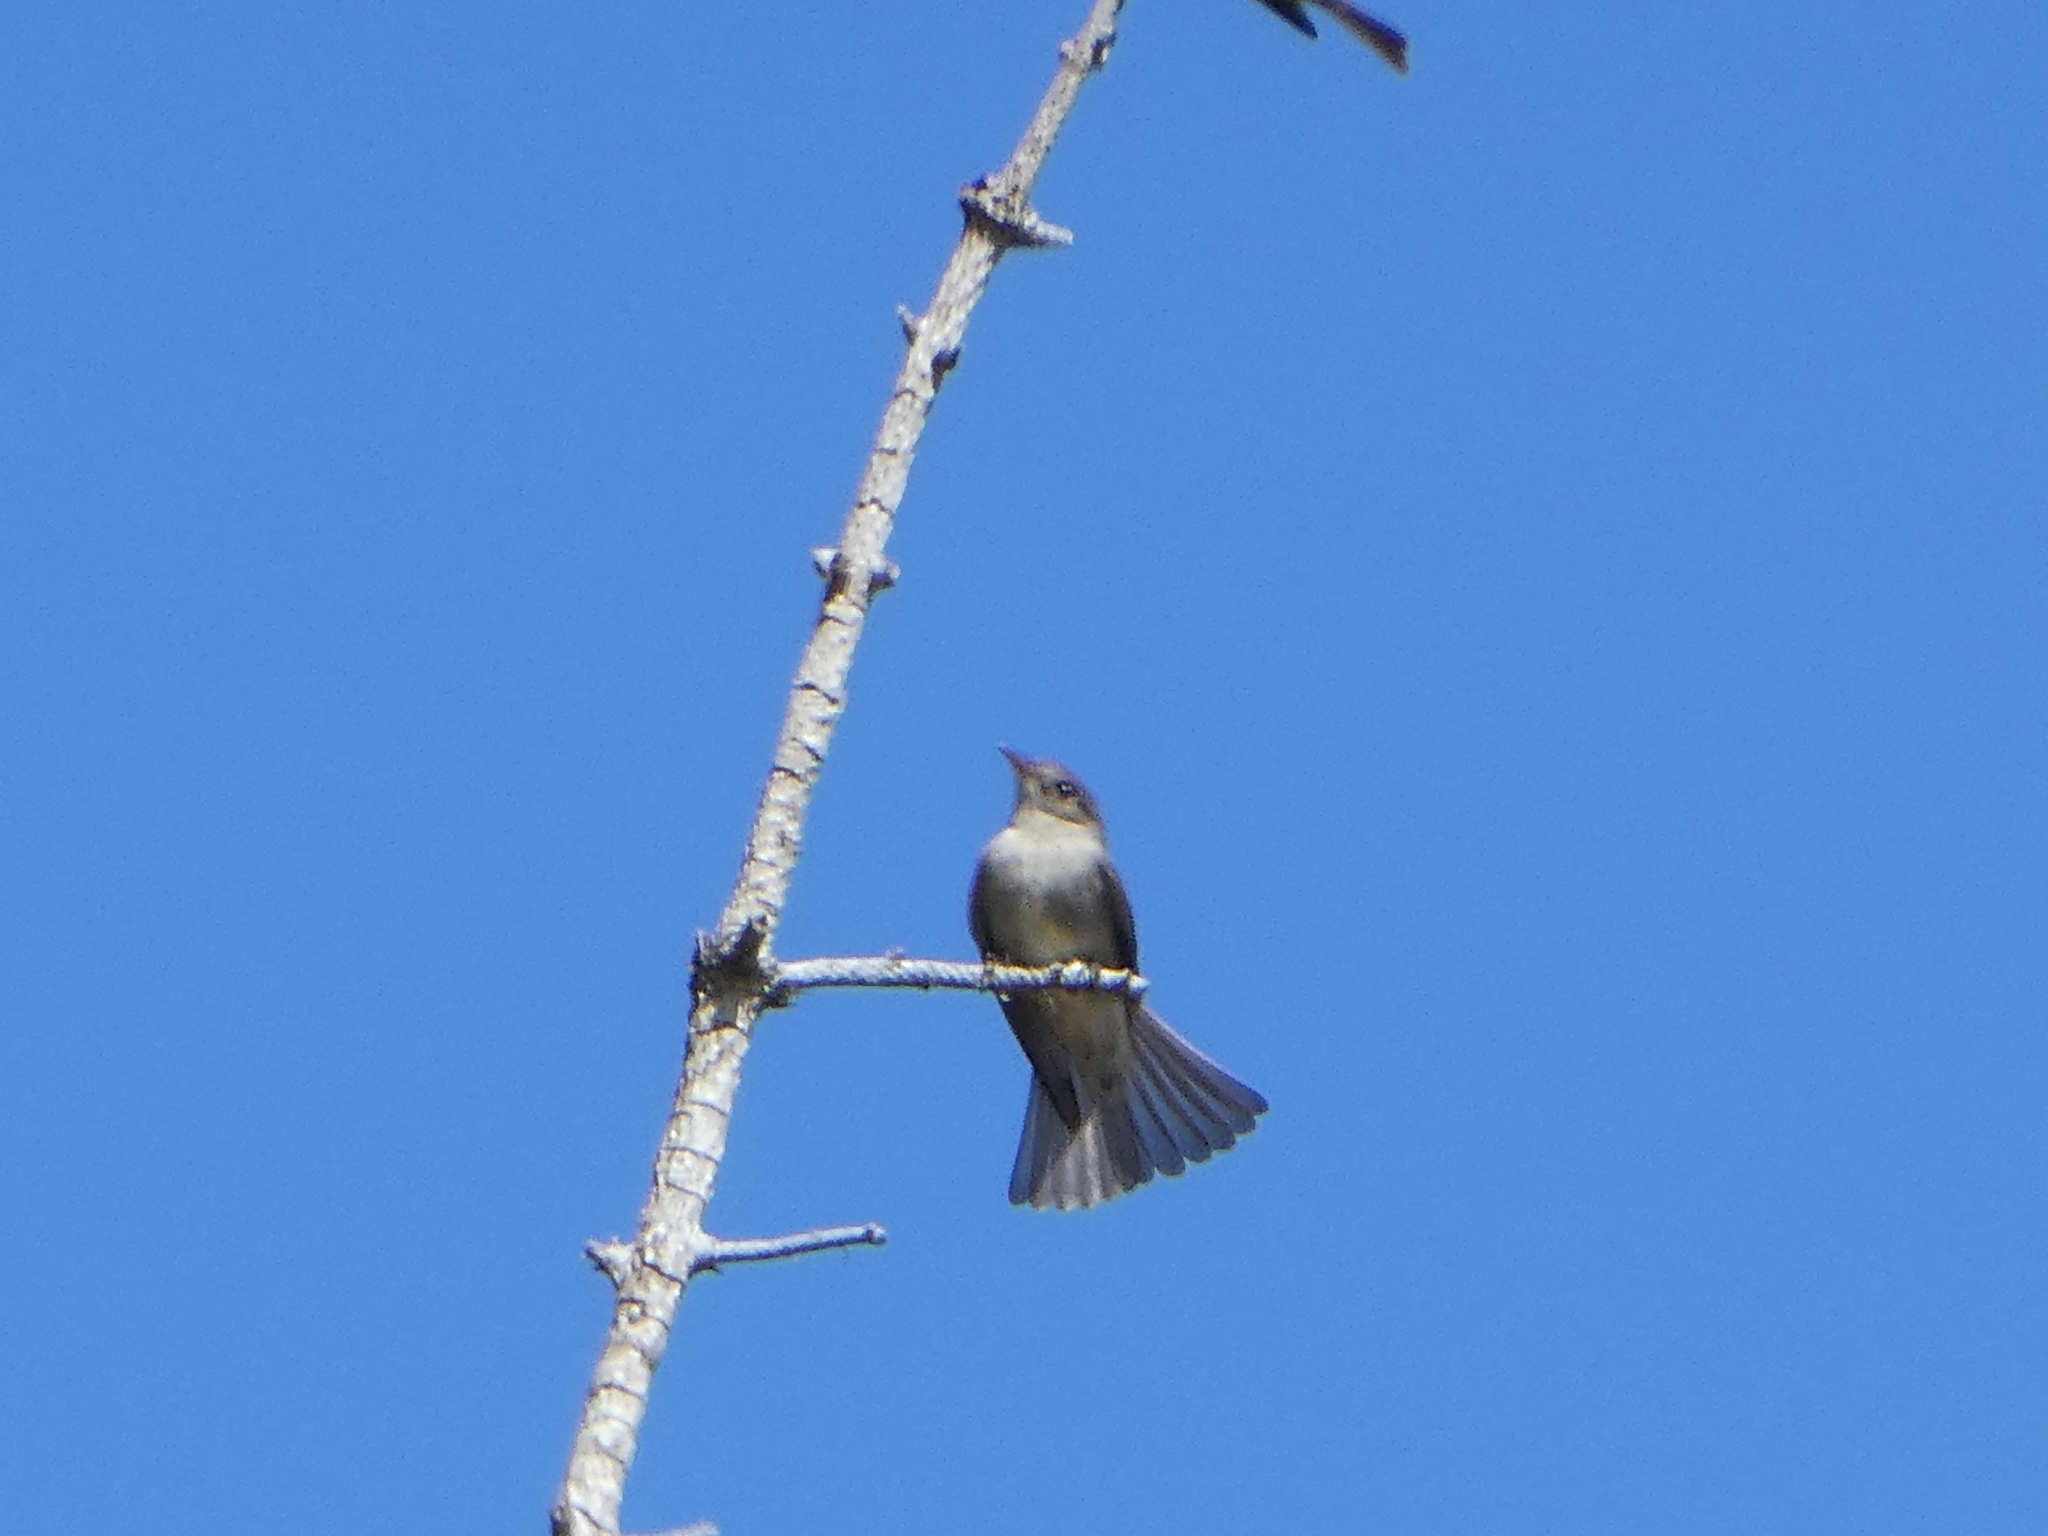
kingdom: Animalia
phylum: Chordata
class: Aves
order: Passeriformes
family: Tyrannidae
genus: Empidonax
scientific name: Empidonax hammondii
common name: Hammond's flycatcher
